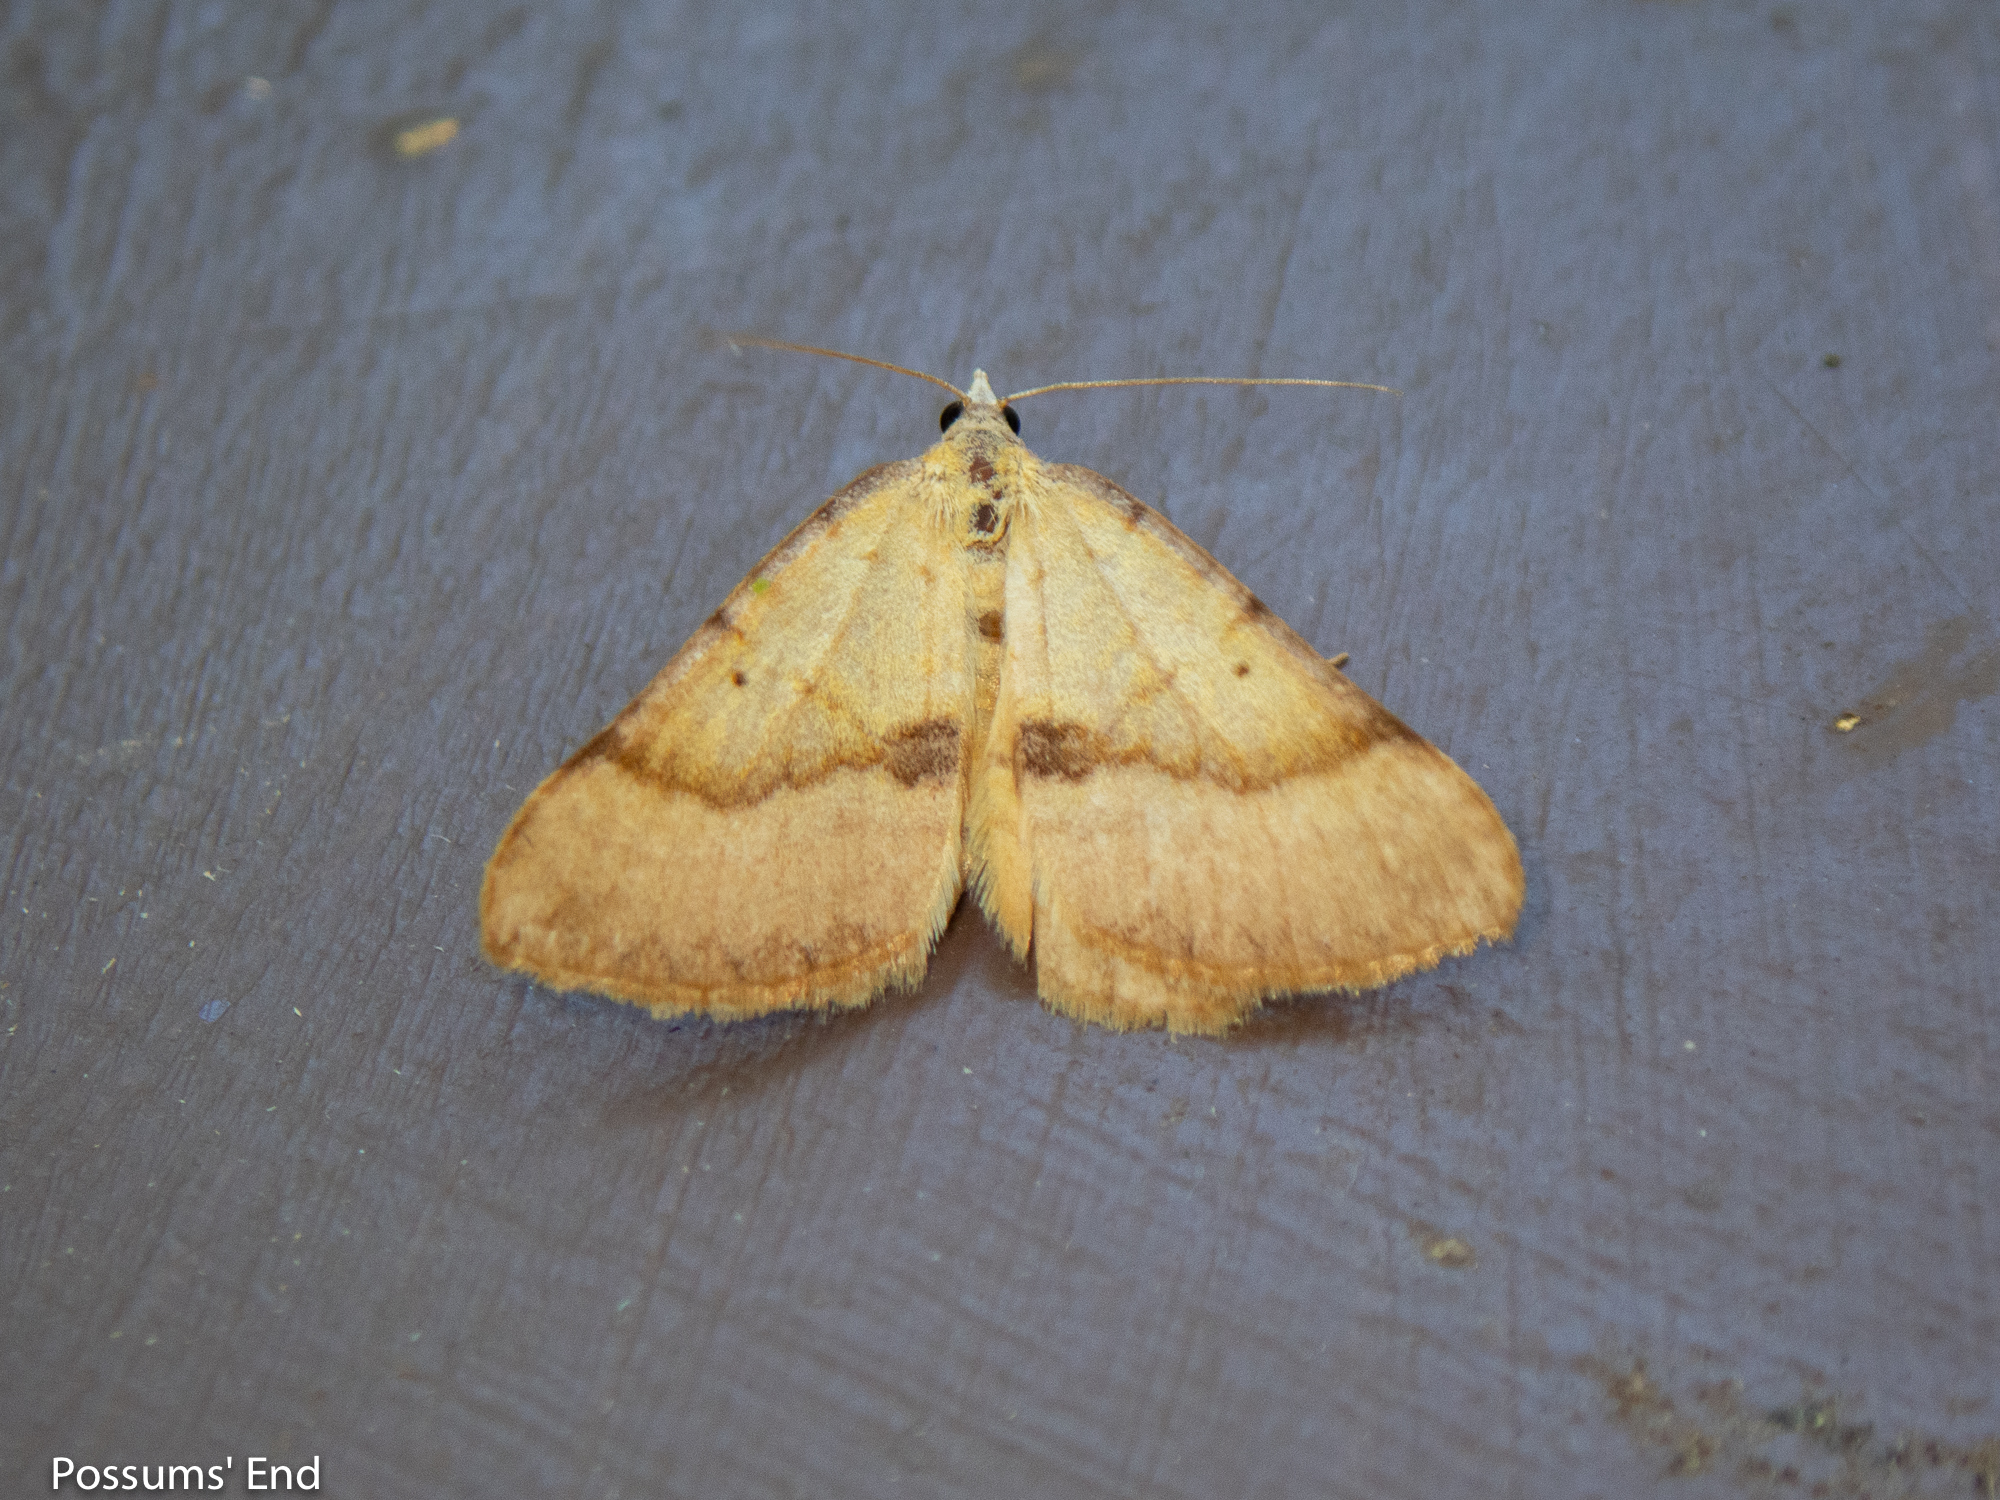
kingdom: Animalia
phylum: Arthropoda
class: Insecta
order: Lepidoptera
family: Geometridae
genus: Anachloris
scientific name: Anachloris subochraria
